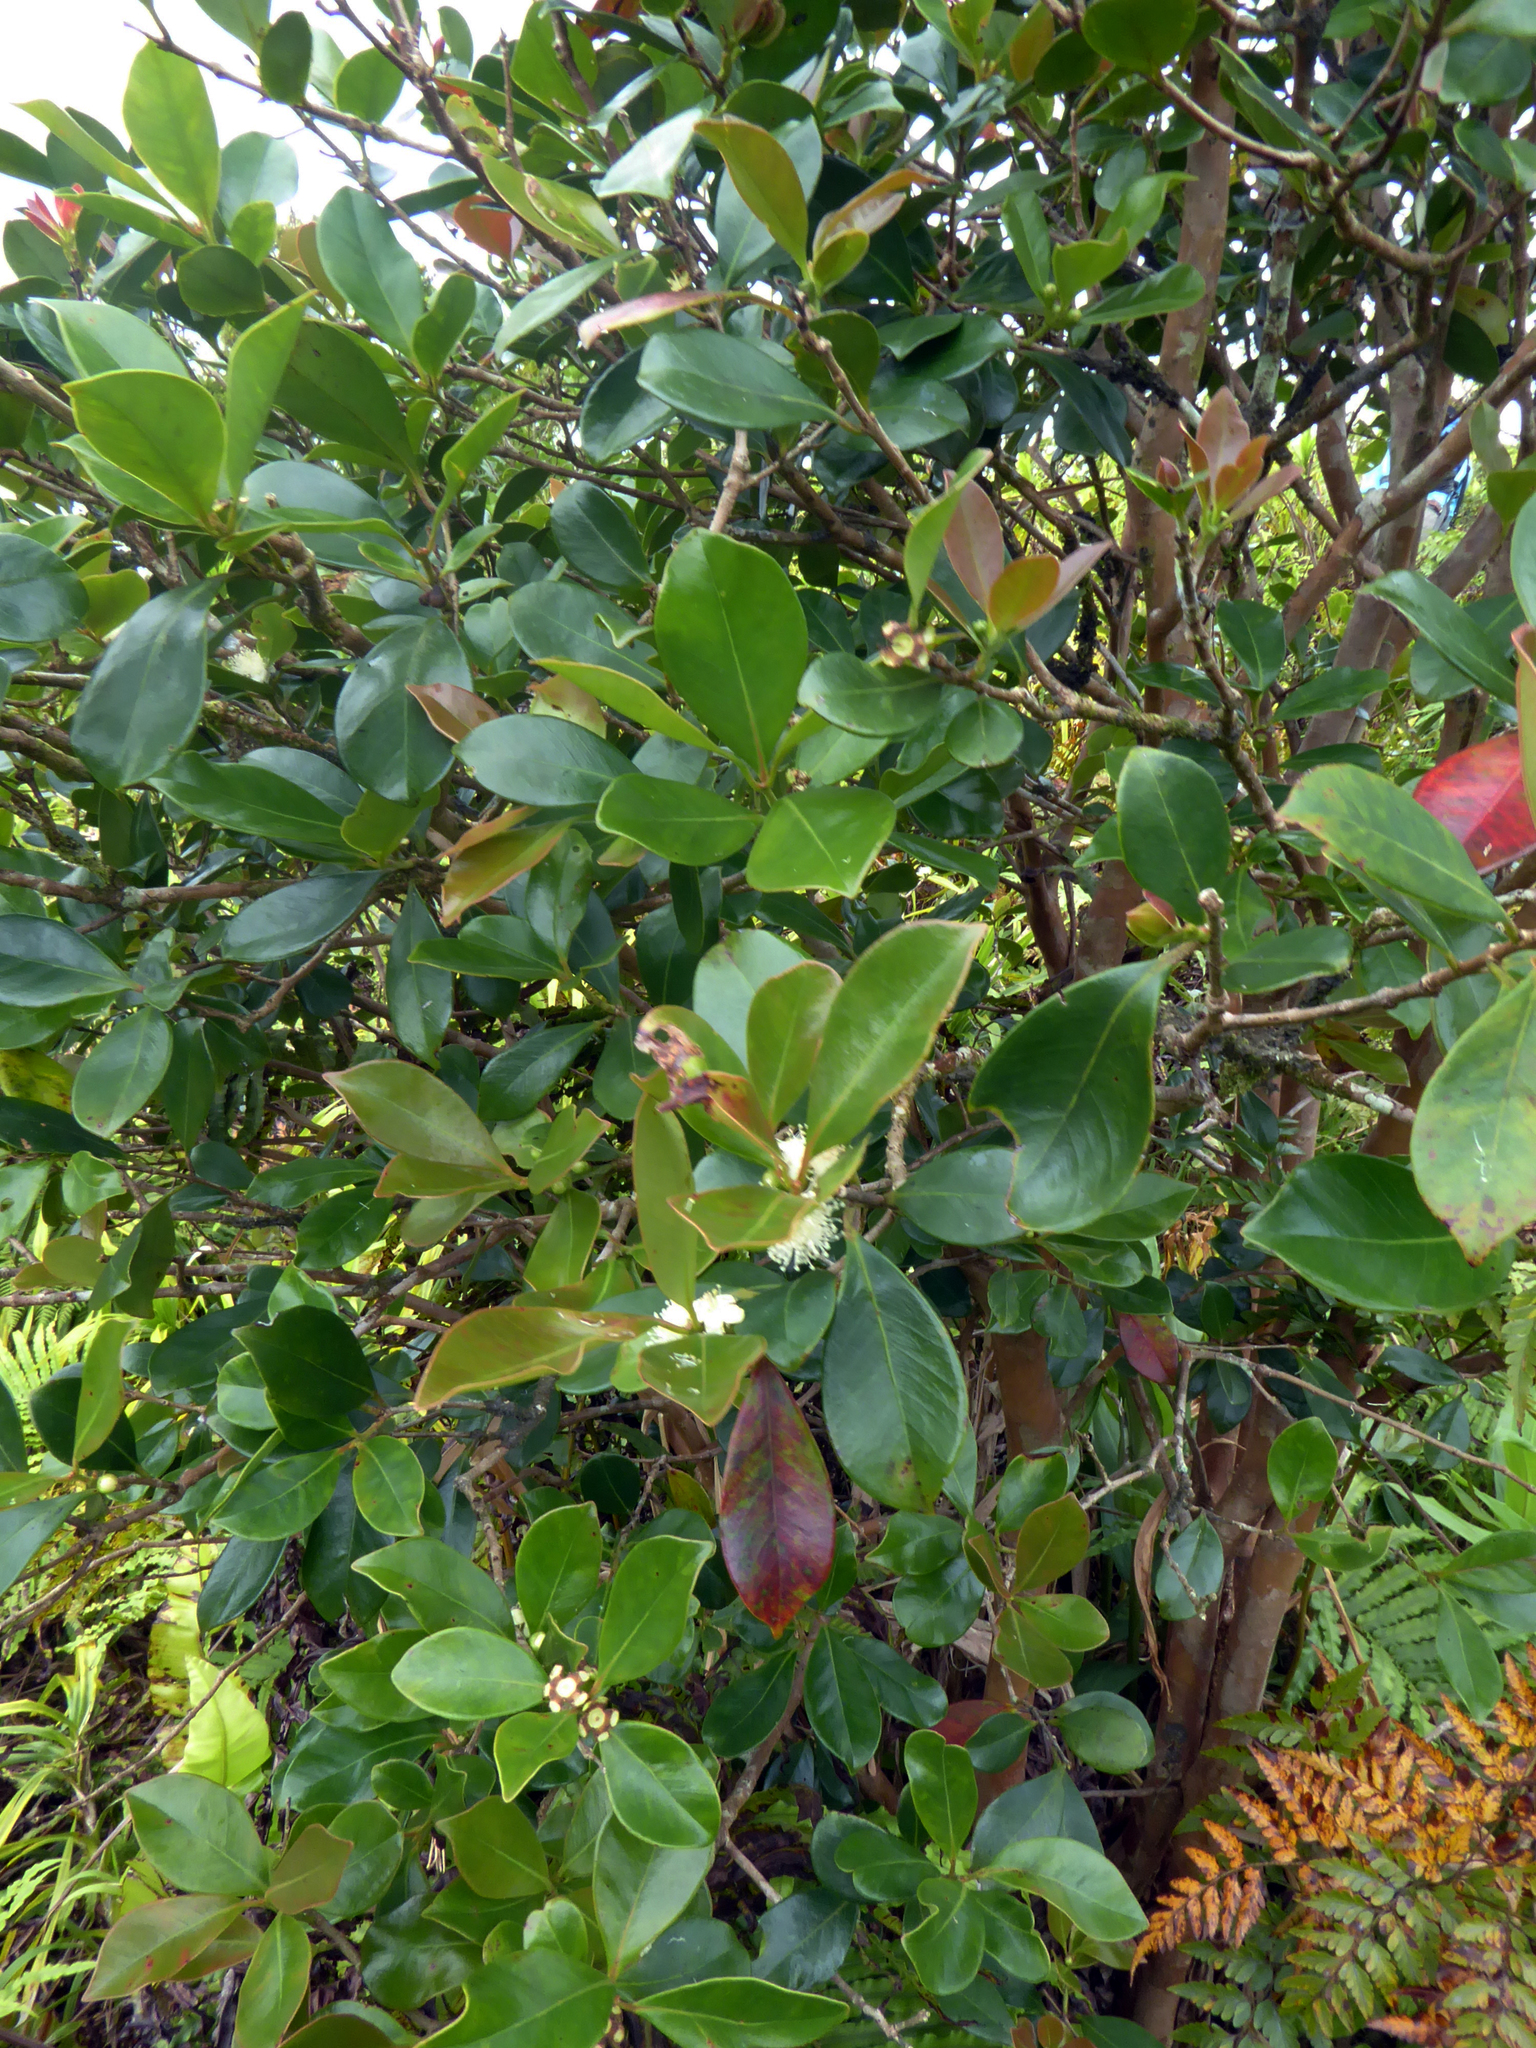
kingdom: Plantae
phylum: Tracheophyta
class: Magnoliopsida
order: Myrtales
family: Myrtaceae
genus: Psidium
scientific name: Psidium cattleianum
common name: Strawberry guava
